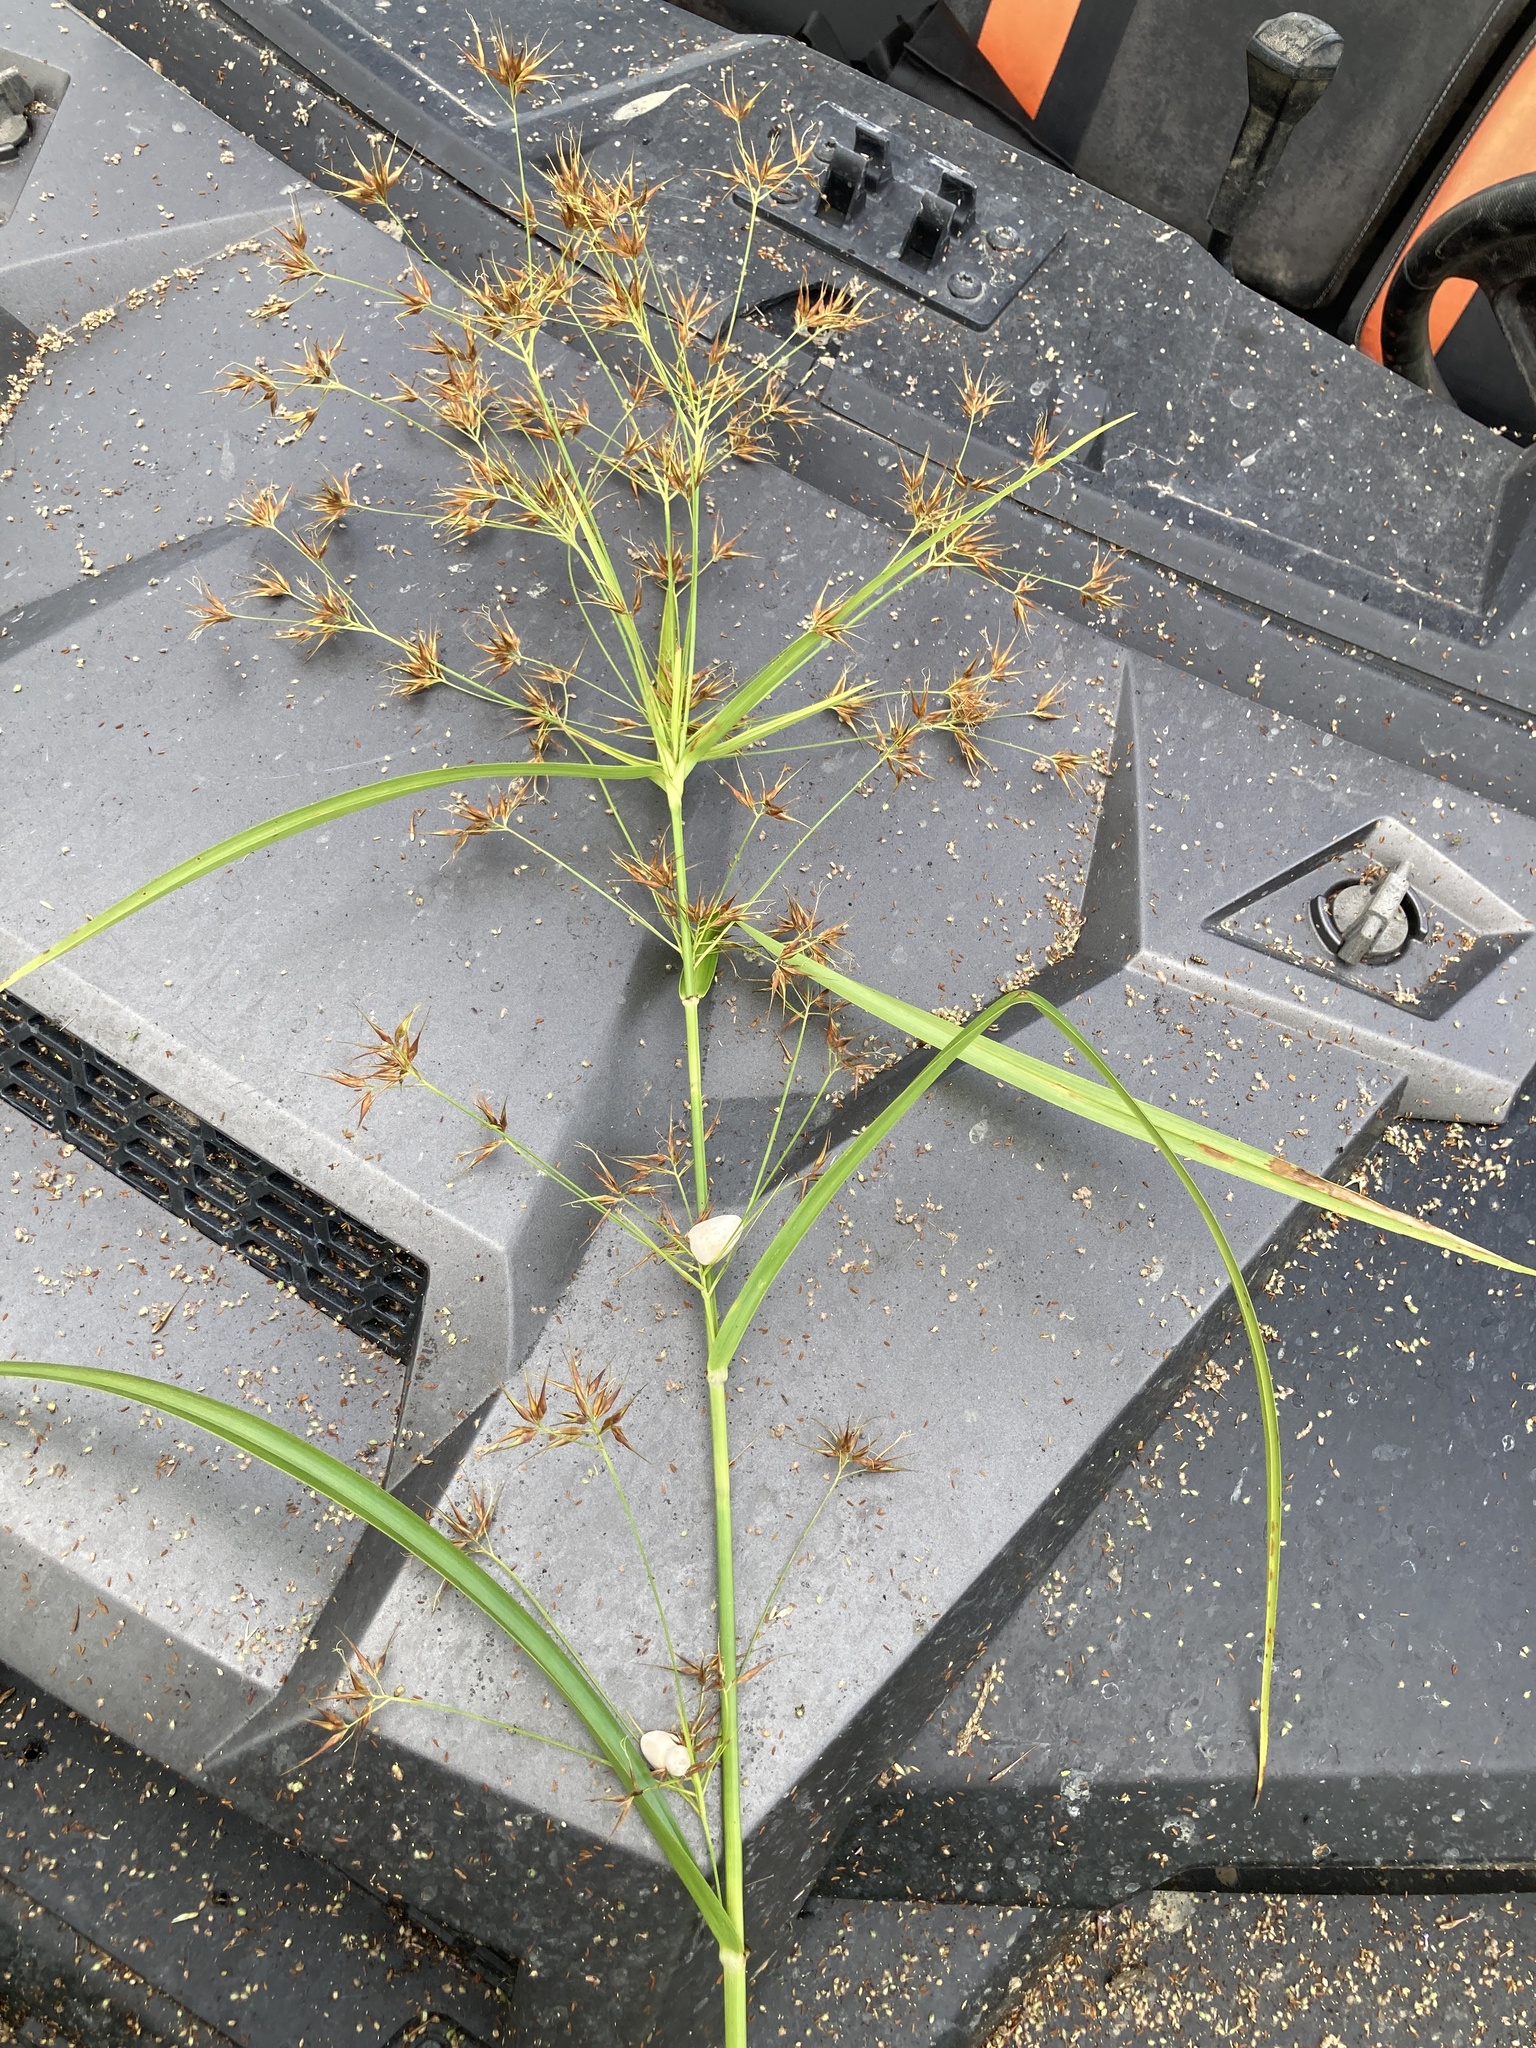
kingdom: Fungi
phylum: Basidiomycota
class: Ustilaginomycetes
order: Ustilaginales
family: Anthracoideaceae
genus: Testicularia
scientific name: Testicularia cyperi
